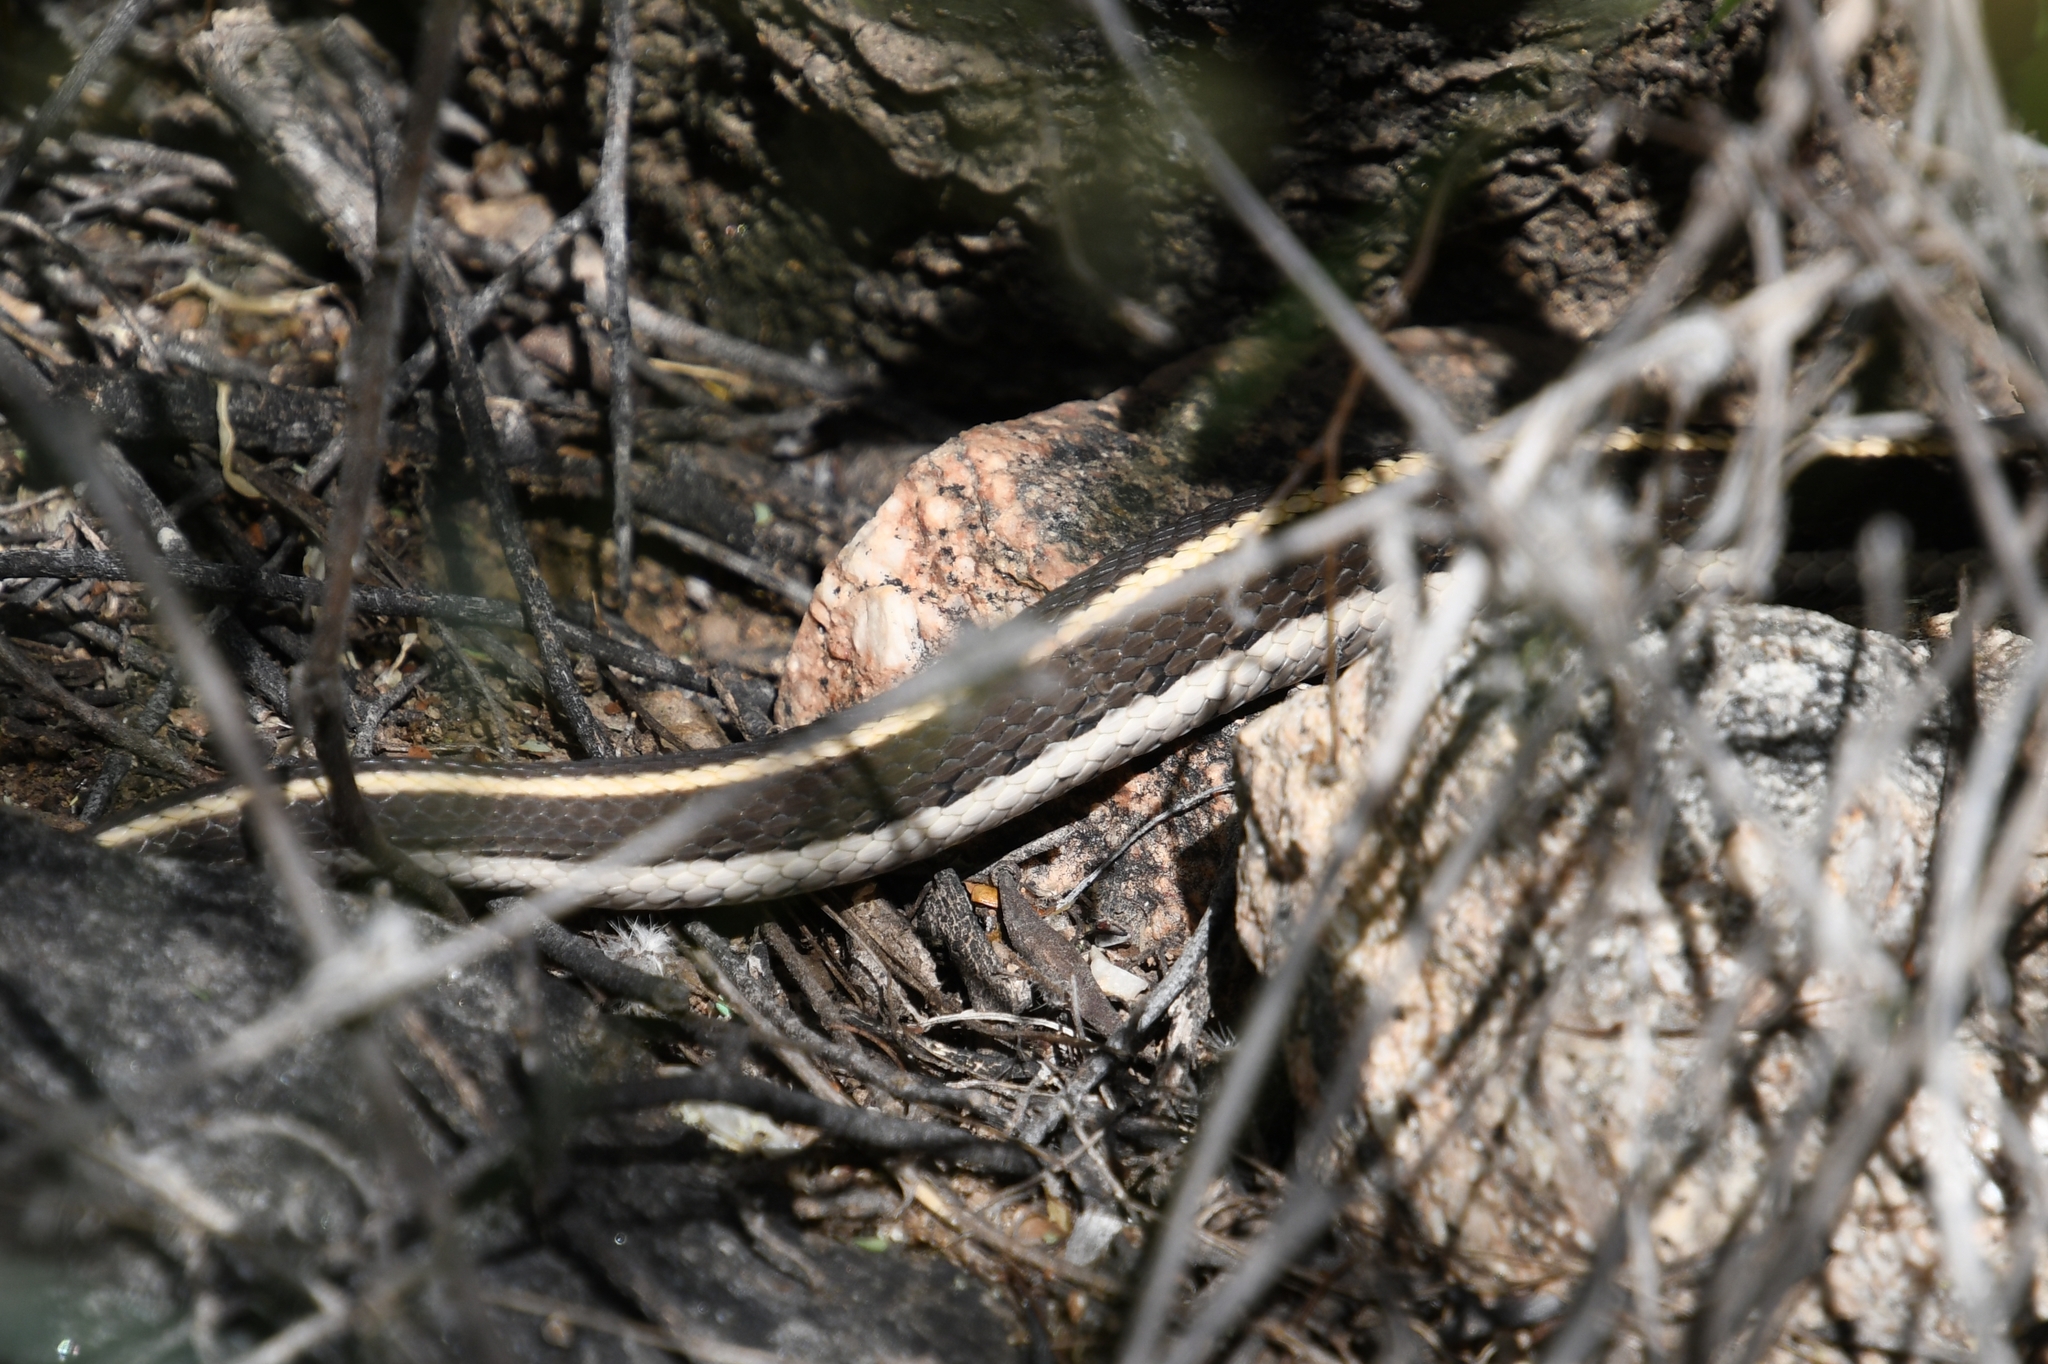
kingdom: Animalia
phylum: Chordata
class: Squamata
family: Colubridae
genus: Thamnophis
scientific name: Thamnophis cyrtopsis
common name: Black-necked gartersnake
